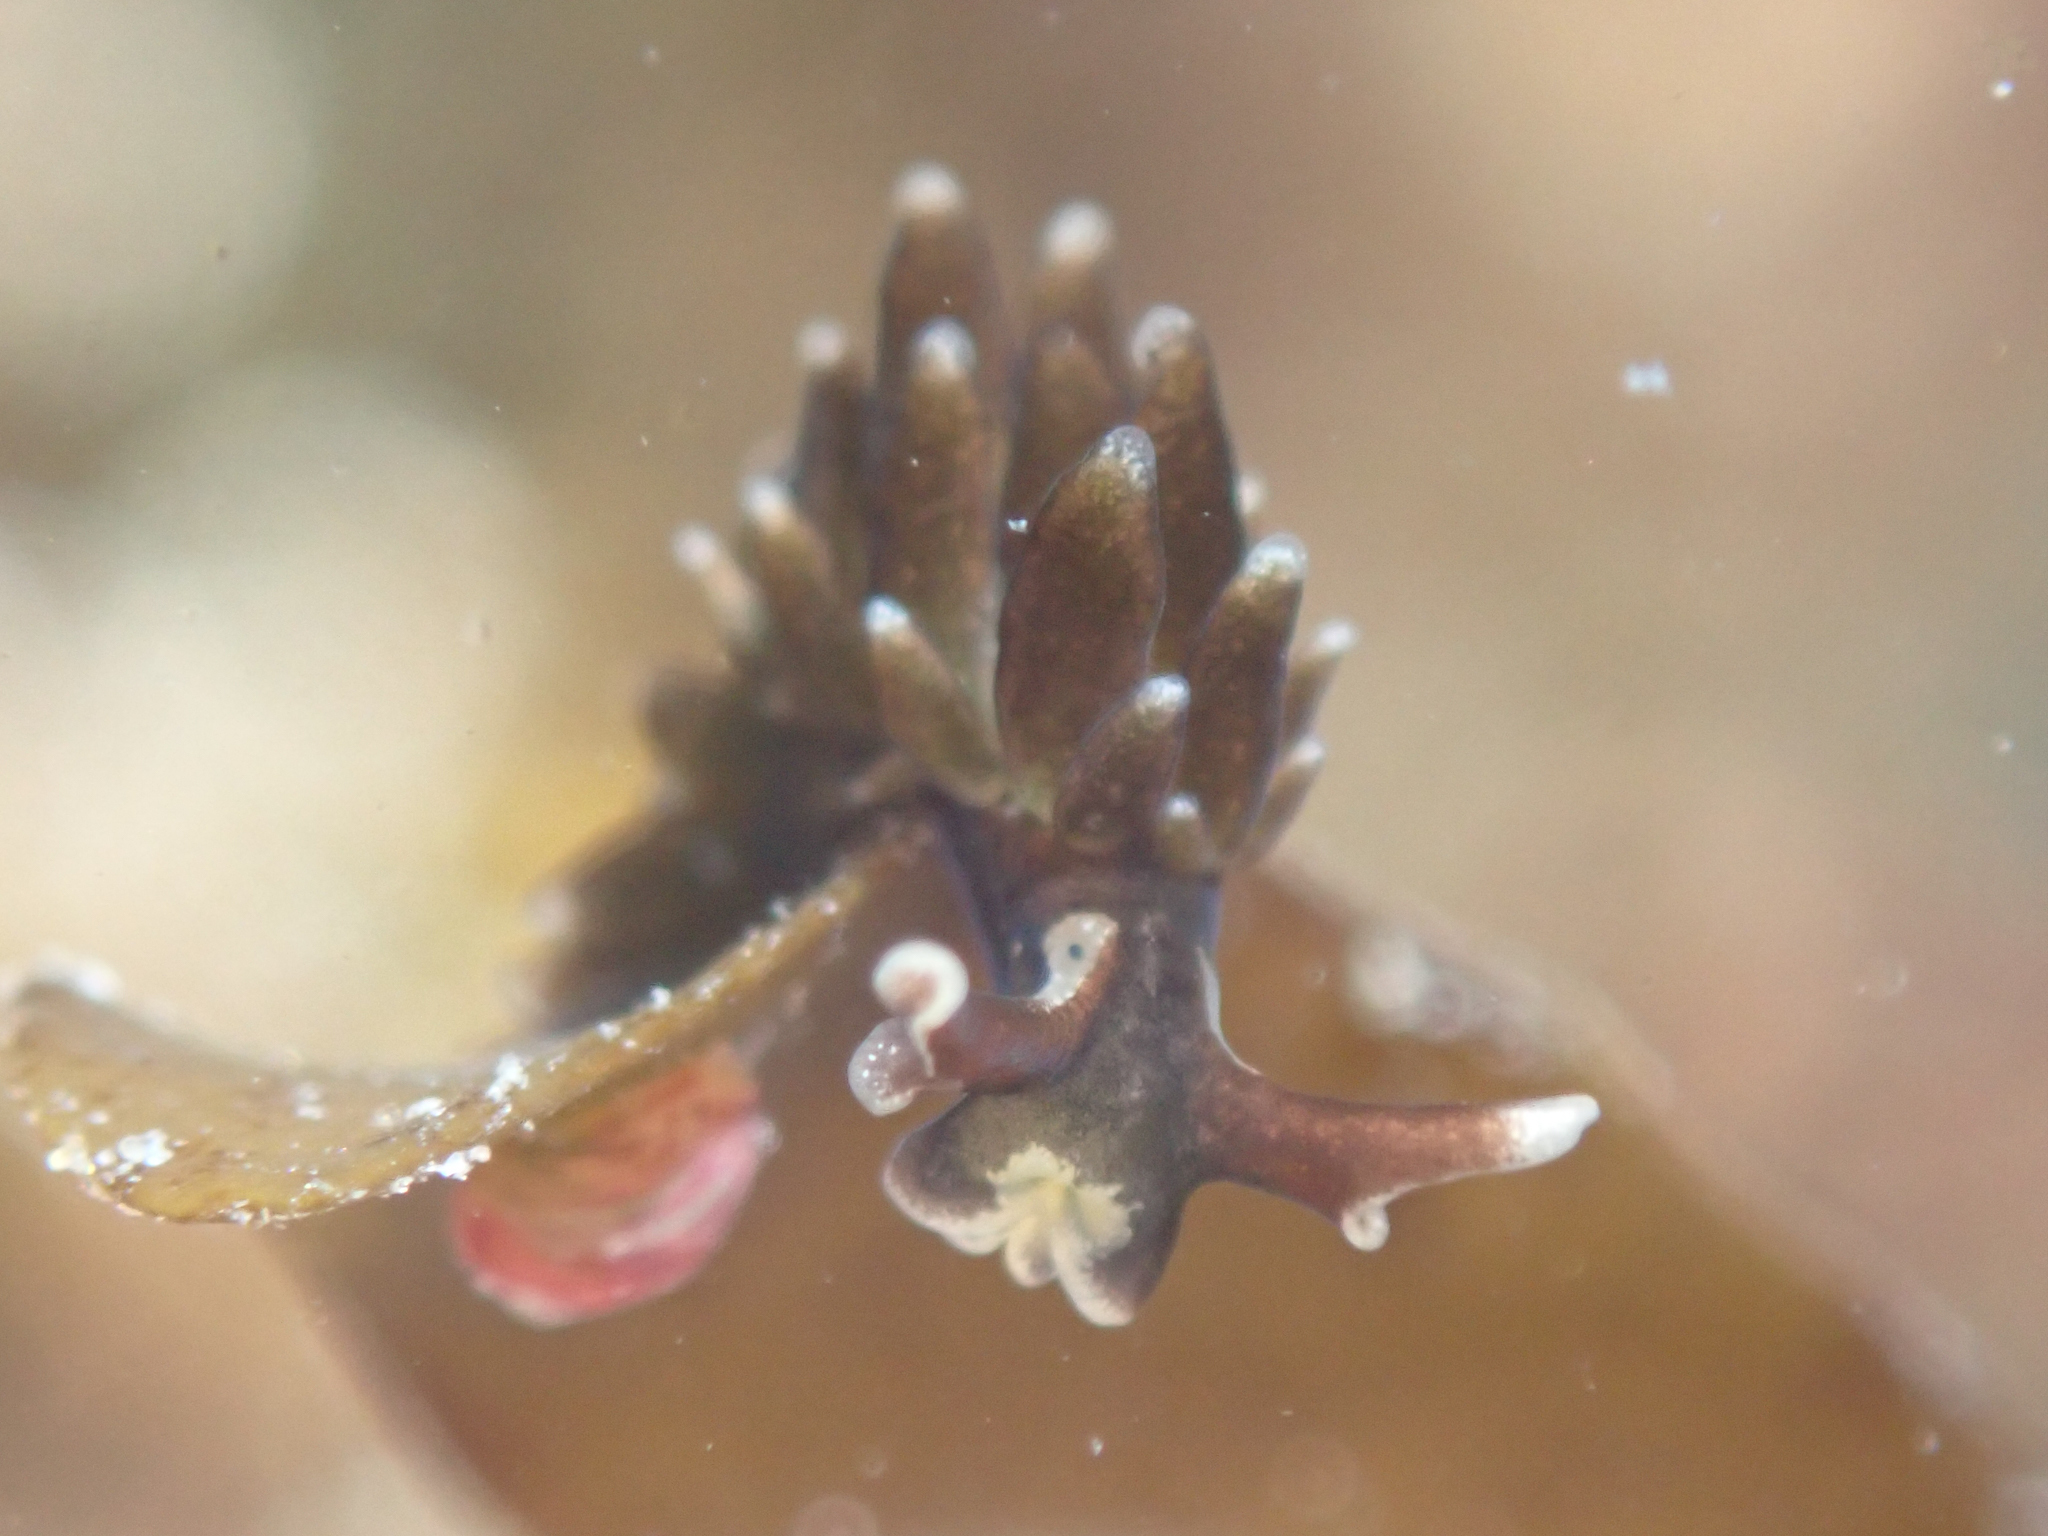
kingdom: Animalia
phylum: Mollusca
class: Gastropoda
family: Hermaeidae
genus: Aplysiopsis
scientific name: Aplysiopsis enteromorphae
